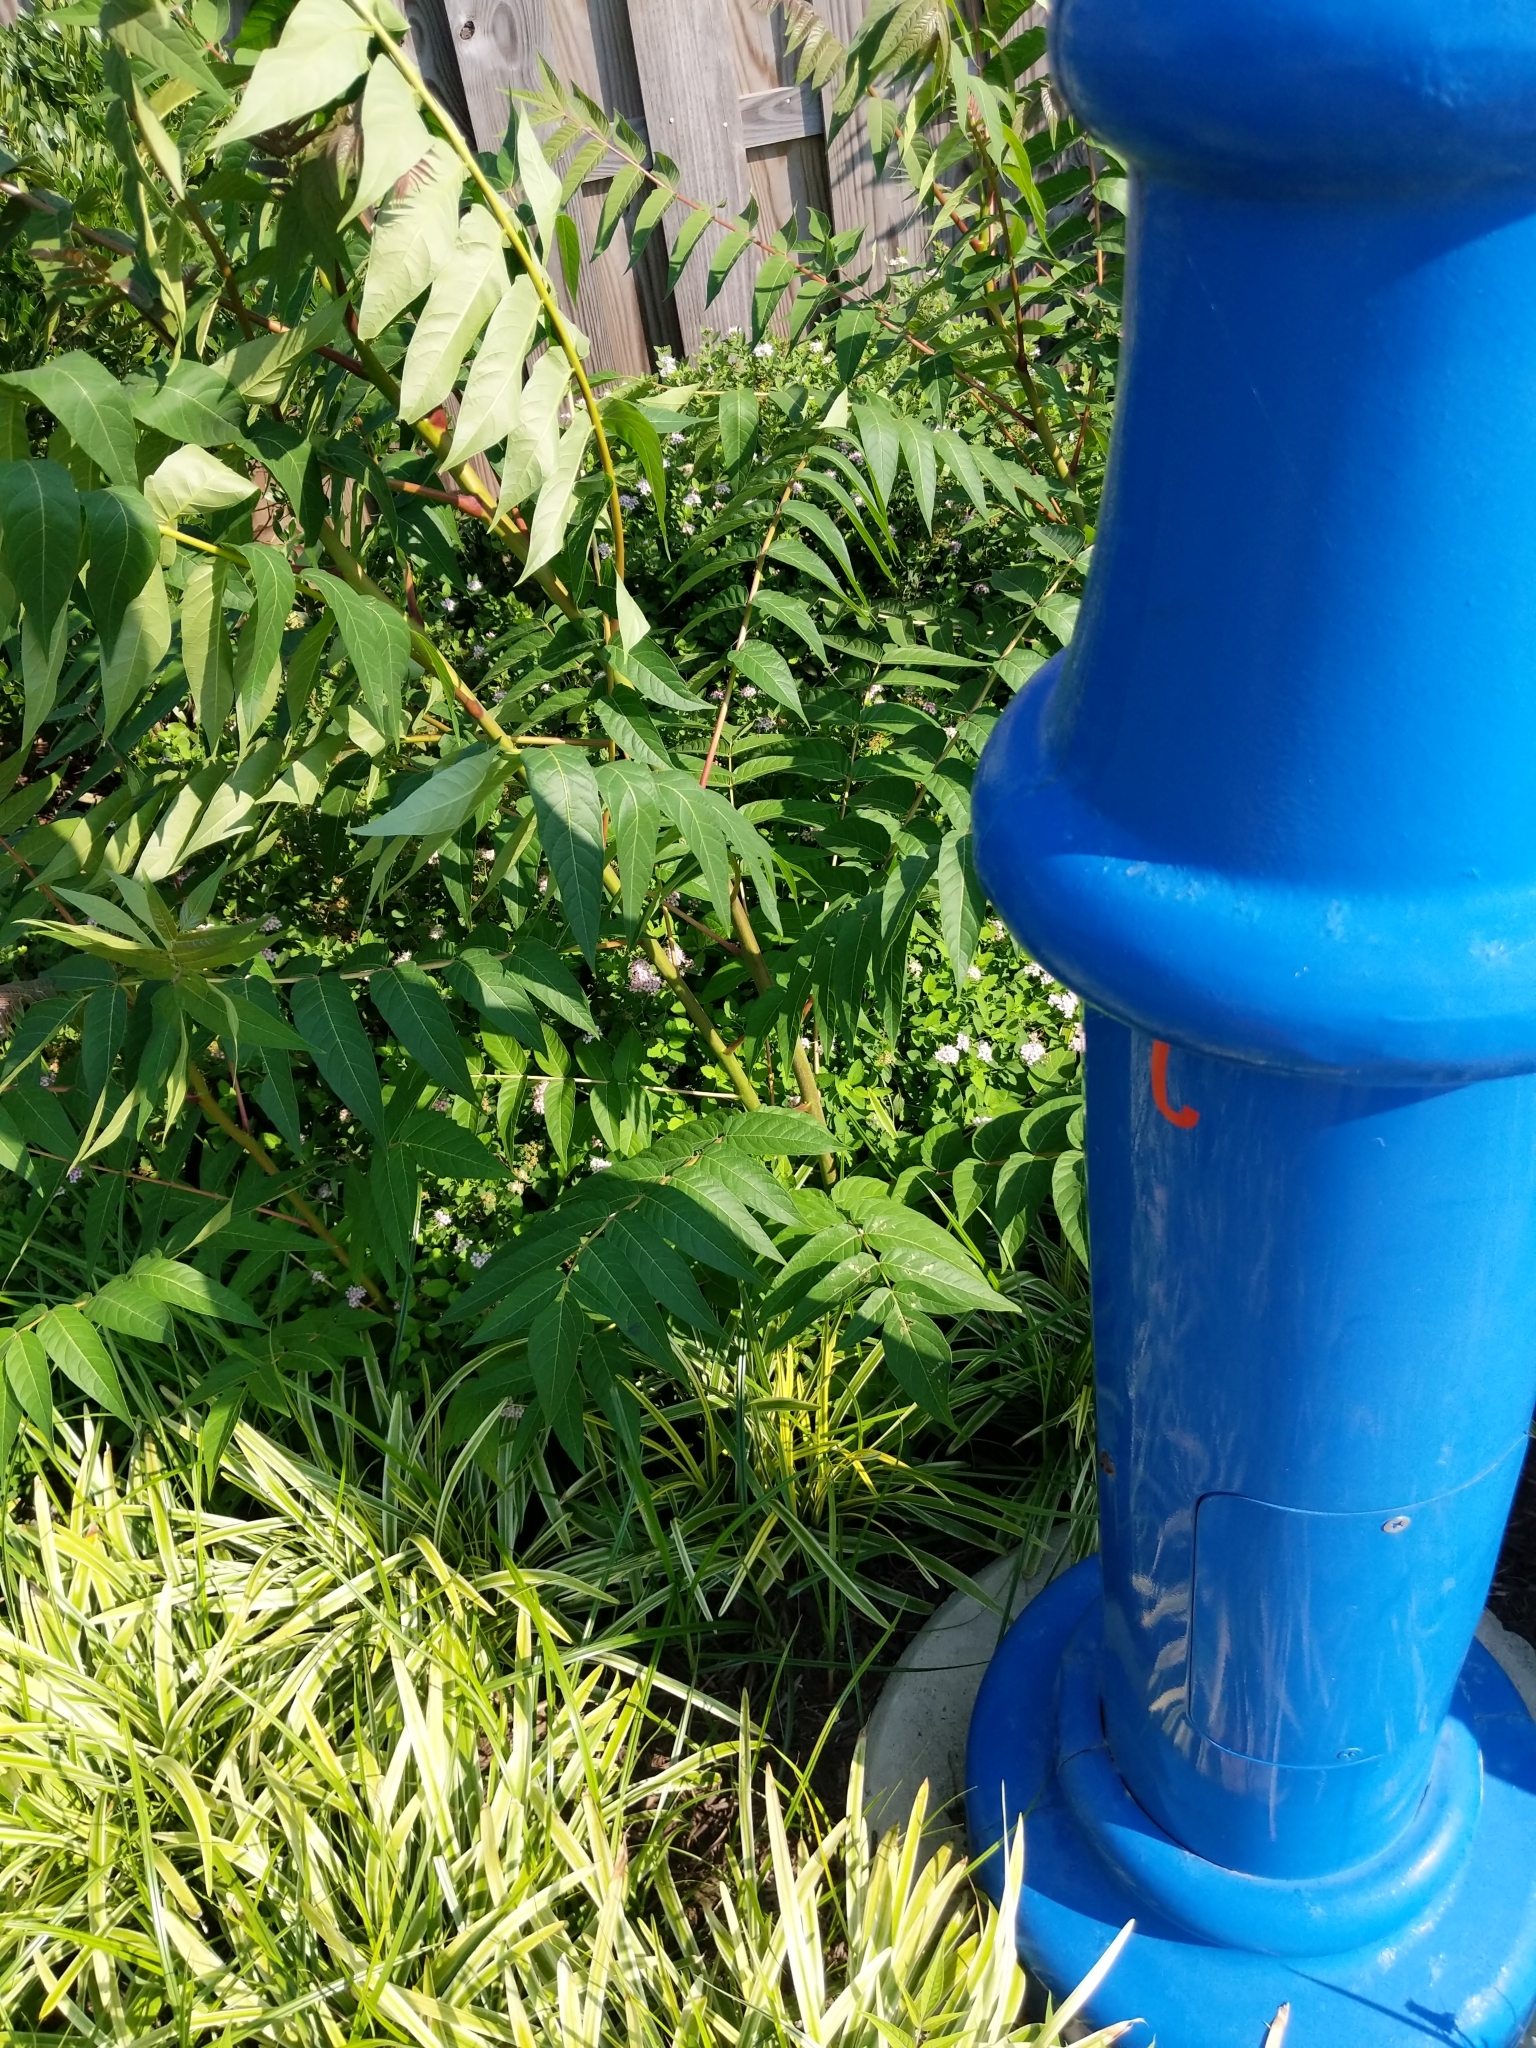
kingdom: Plantae
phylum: Tracheophyta
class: Magnoliopsida
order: Sapindales
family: Simaroubaceae
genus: Ailanthus
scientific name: Ailanthus altissima
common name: Tree-of-heaven
